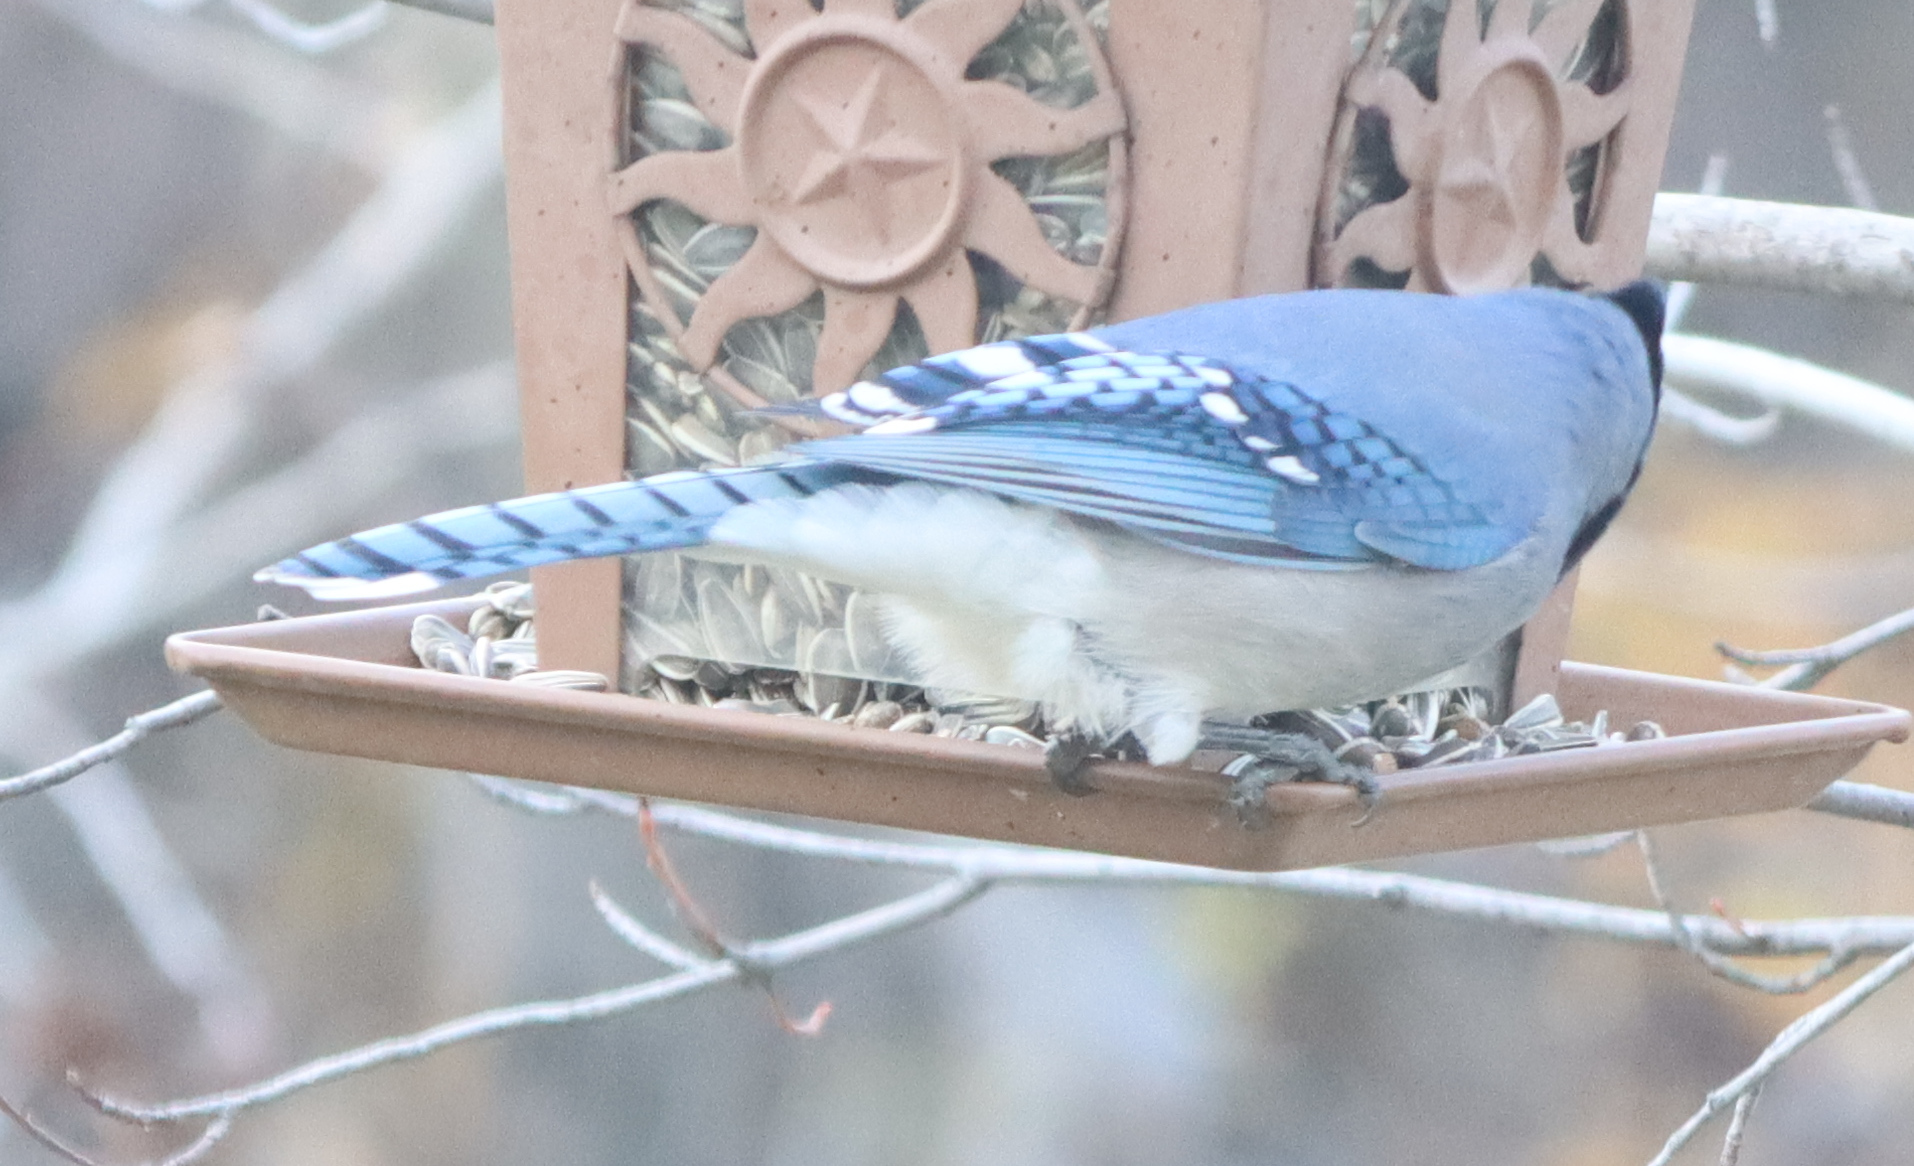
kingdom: Animalia
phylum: Chordata
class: Aves
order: Passeriformes
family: Corvidae
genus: Cyanocitta
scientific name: Cyanocitta cristata
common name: Blue jay
